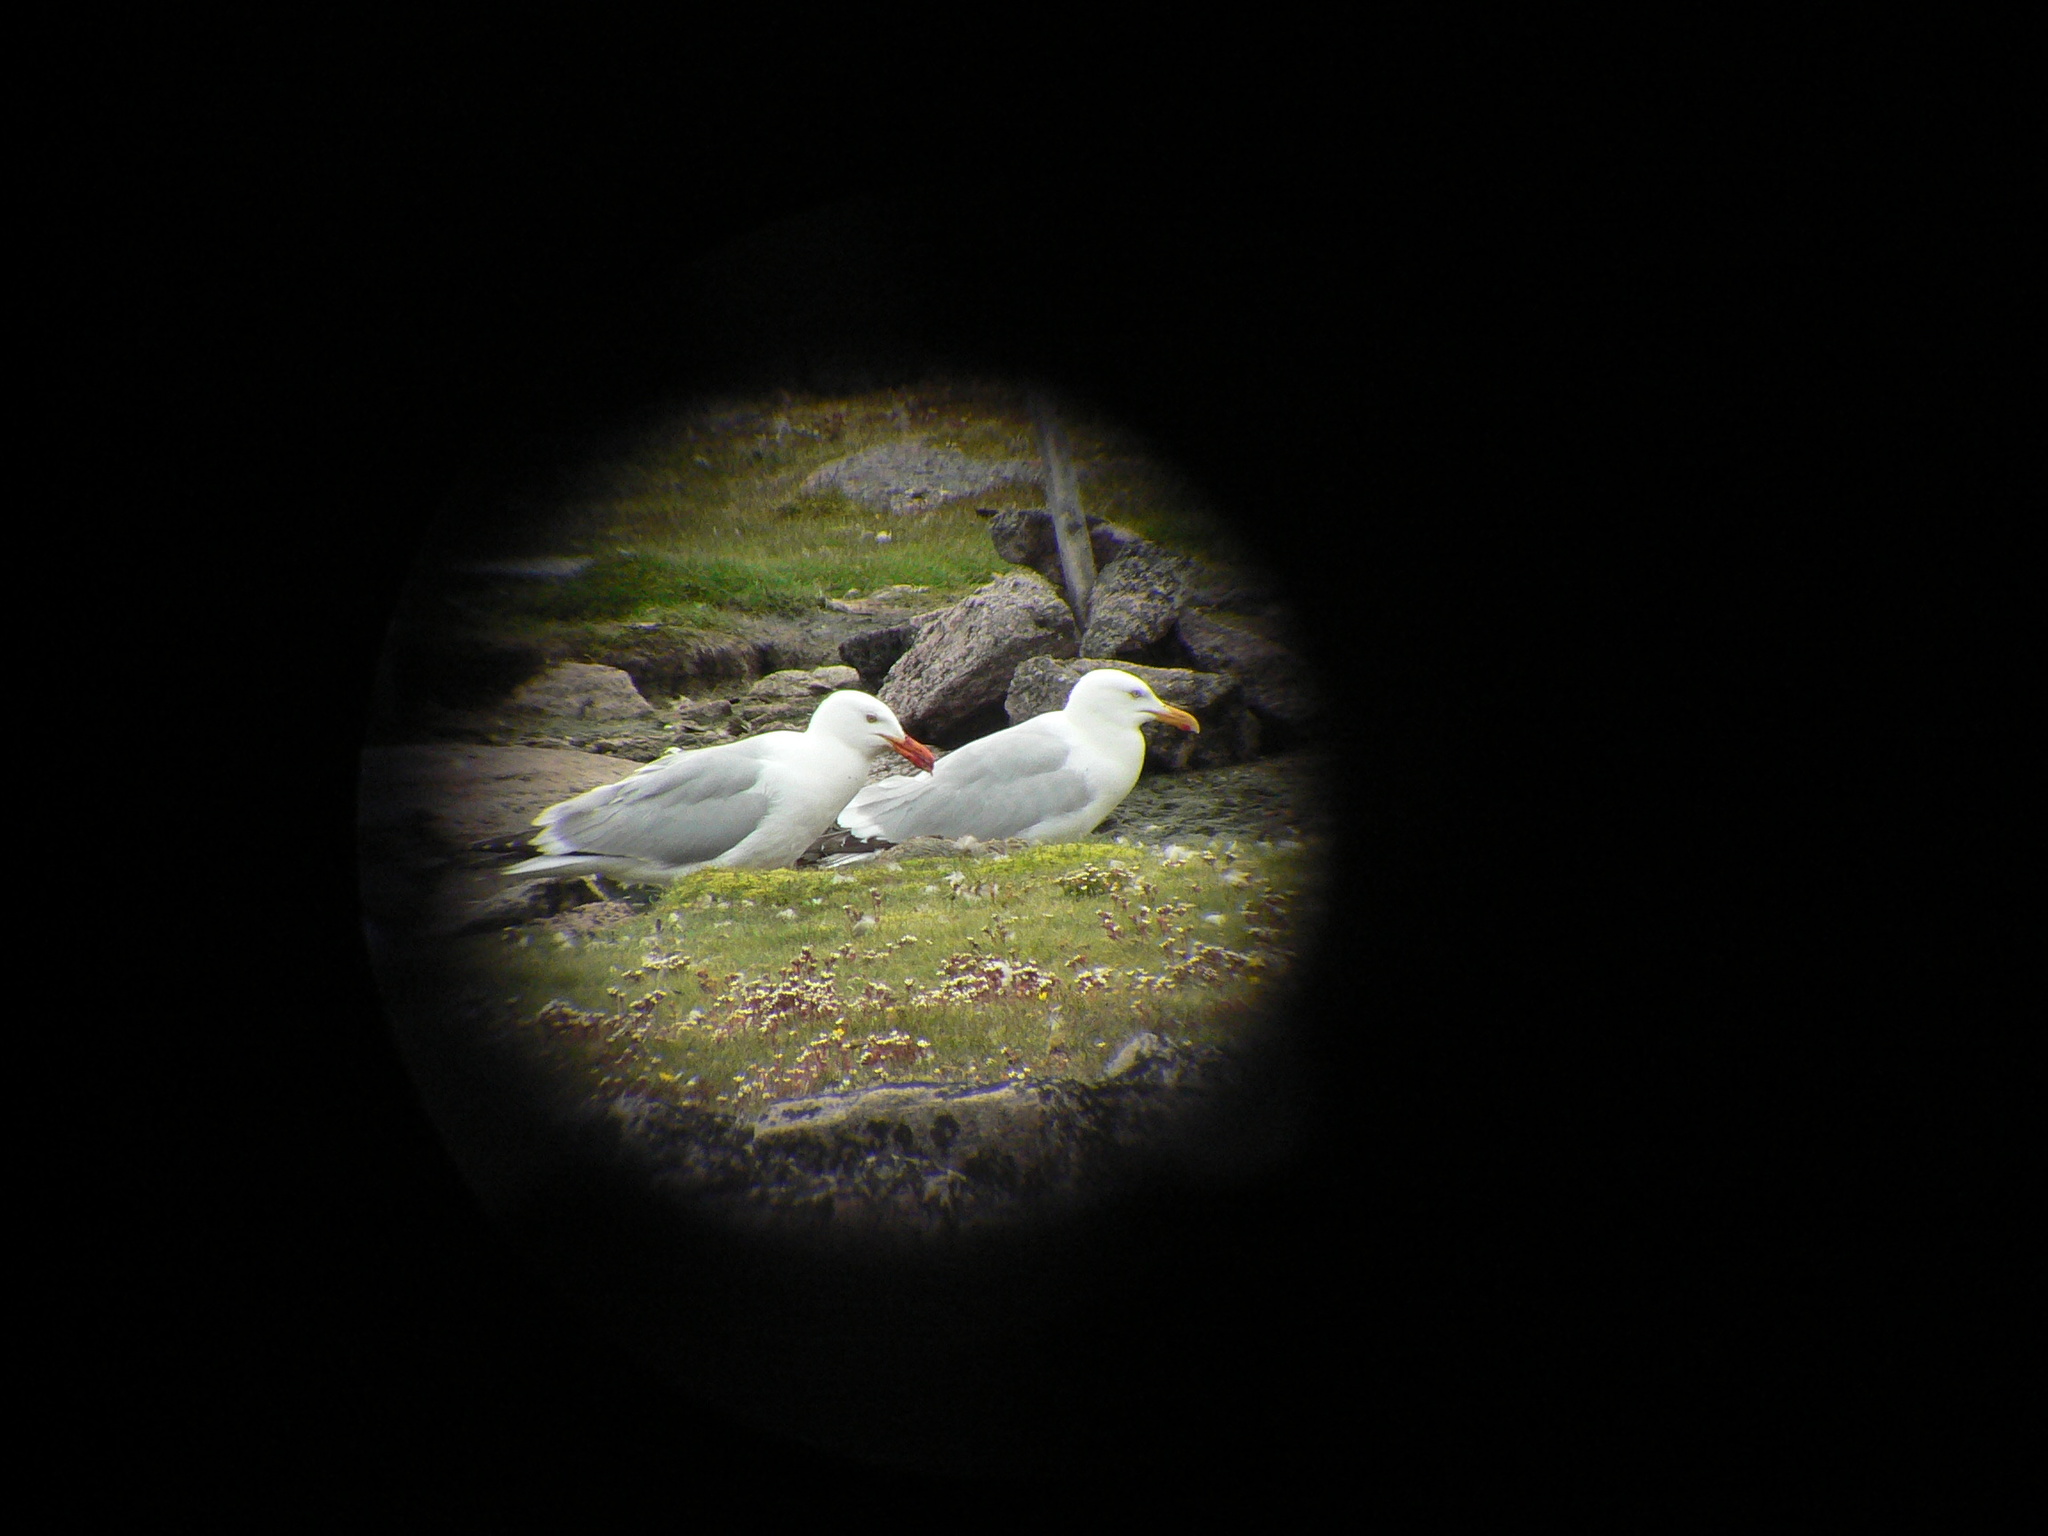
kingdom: Animalia
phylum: Chordata
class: Aves
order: Charadriiformes
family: Laridae
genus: Larus
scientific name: Larus argentatus
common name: Herring gull
